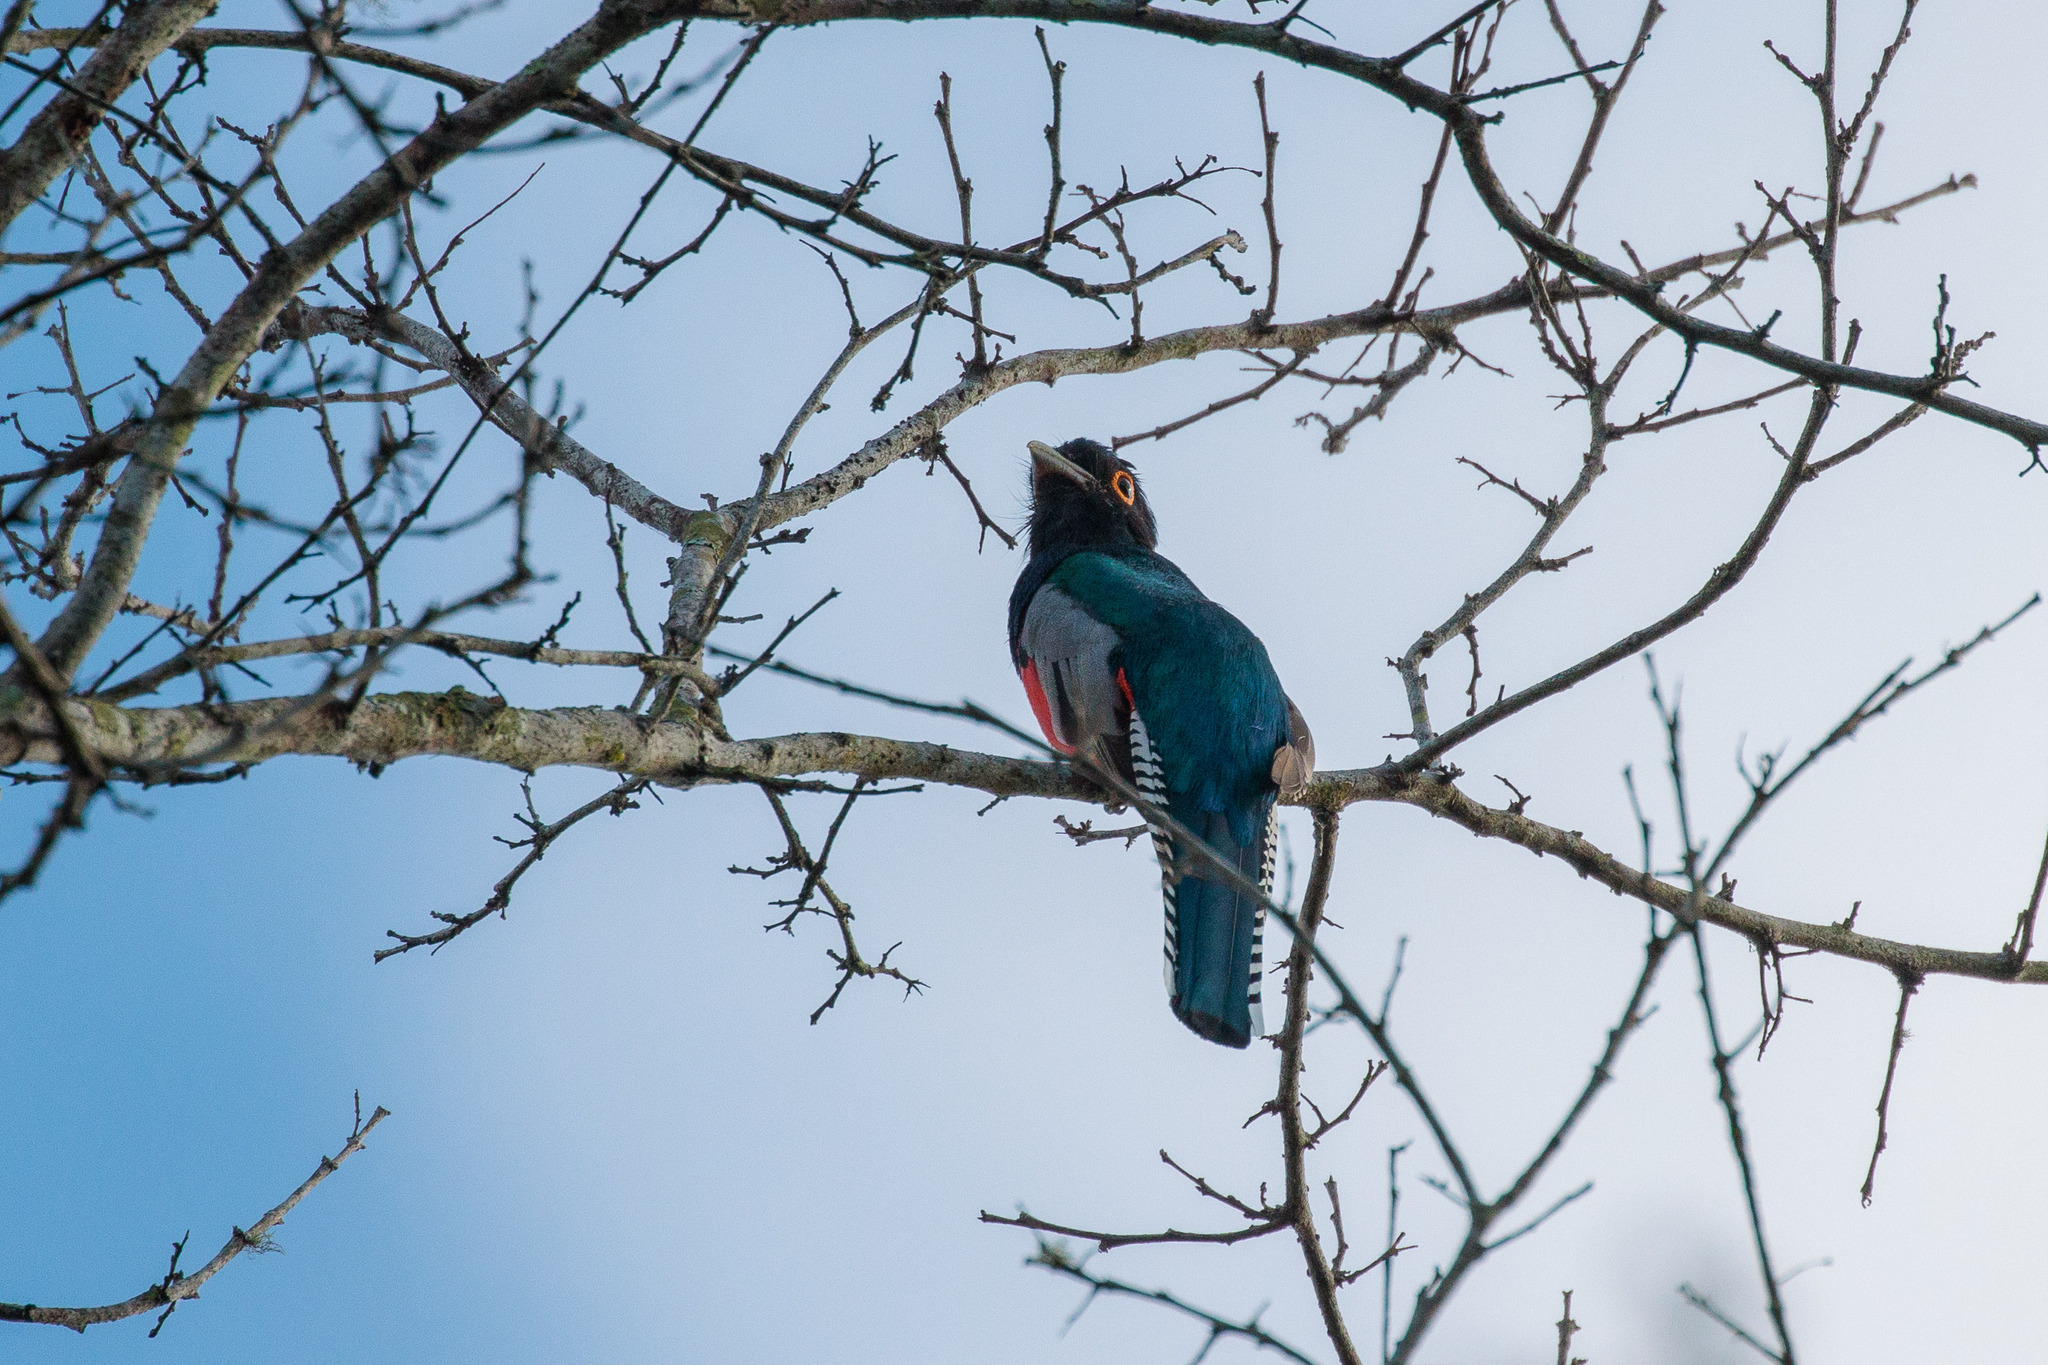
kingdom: Animalia
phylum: Chordata
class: Aves
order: Trogoniformes
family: Trogonidae
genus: Trogon
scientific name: Trogon curucui
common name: Blue-crowned trogon
